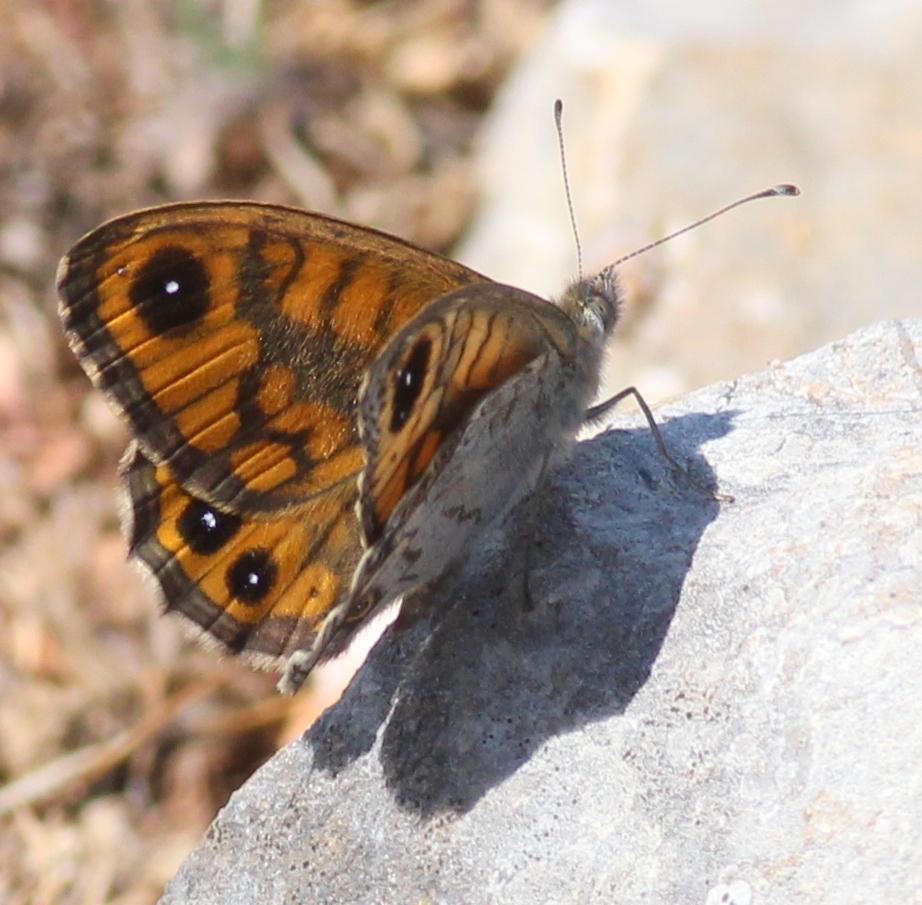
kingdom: Animalia
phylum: Arthropoda
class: Insecta
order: Lepidoptera
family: Nymphalidae
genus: Pararge
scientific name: Pararge Lasiommata megera
